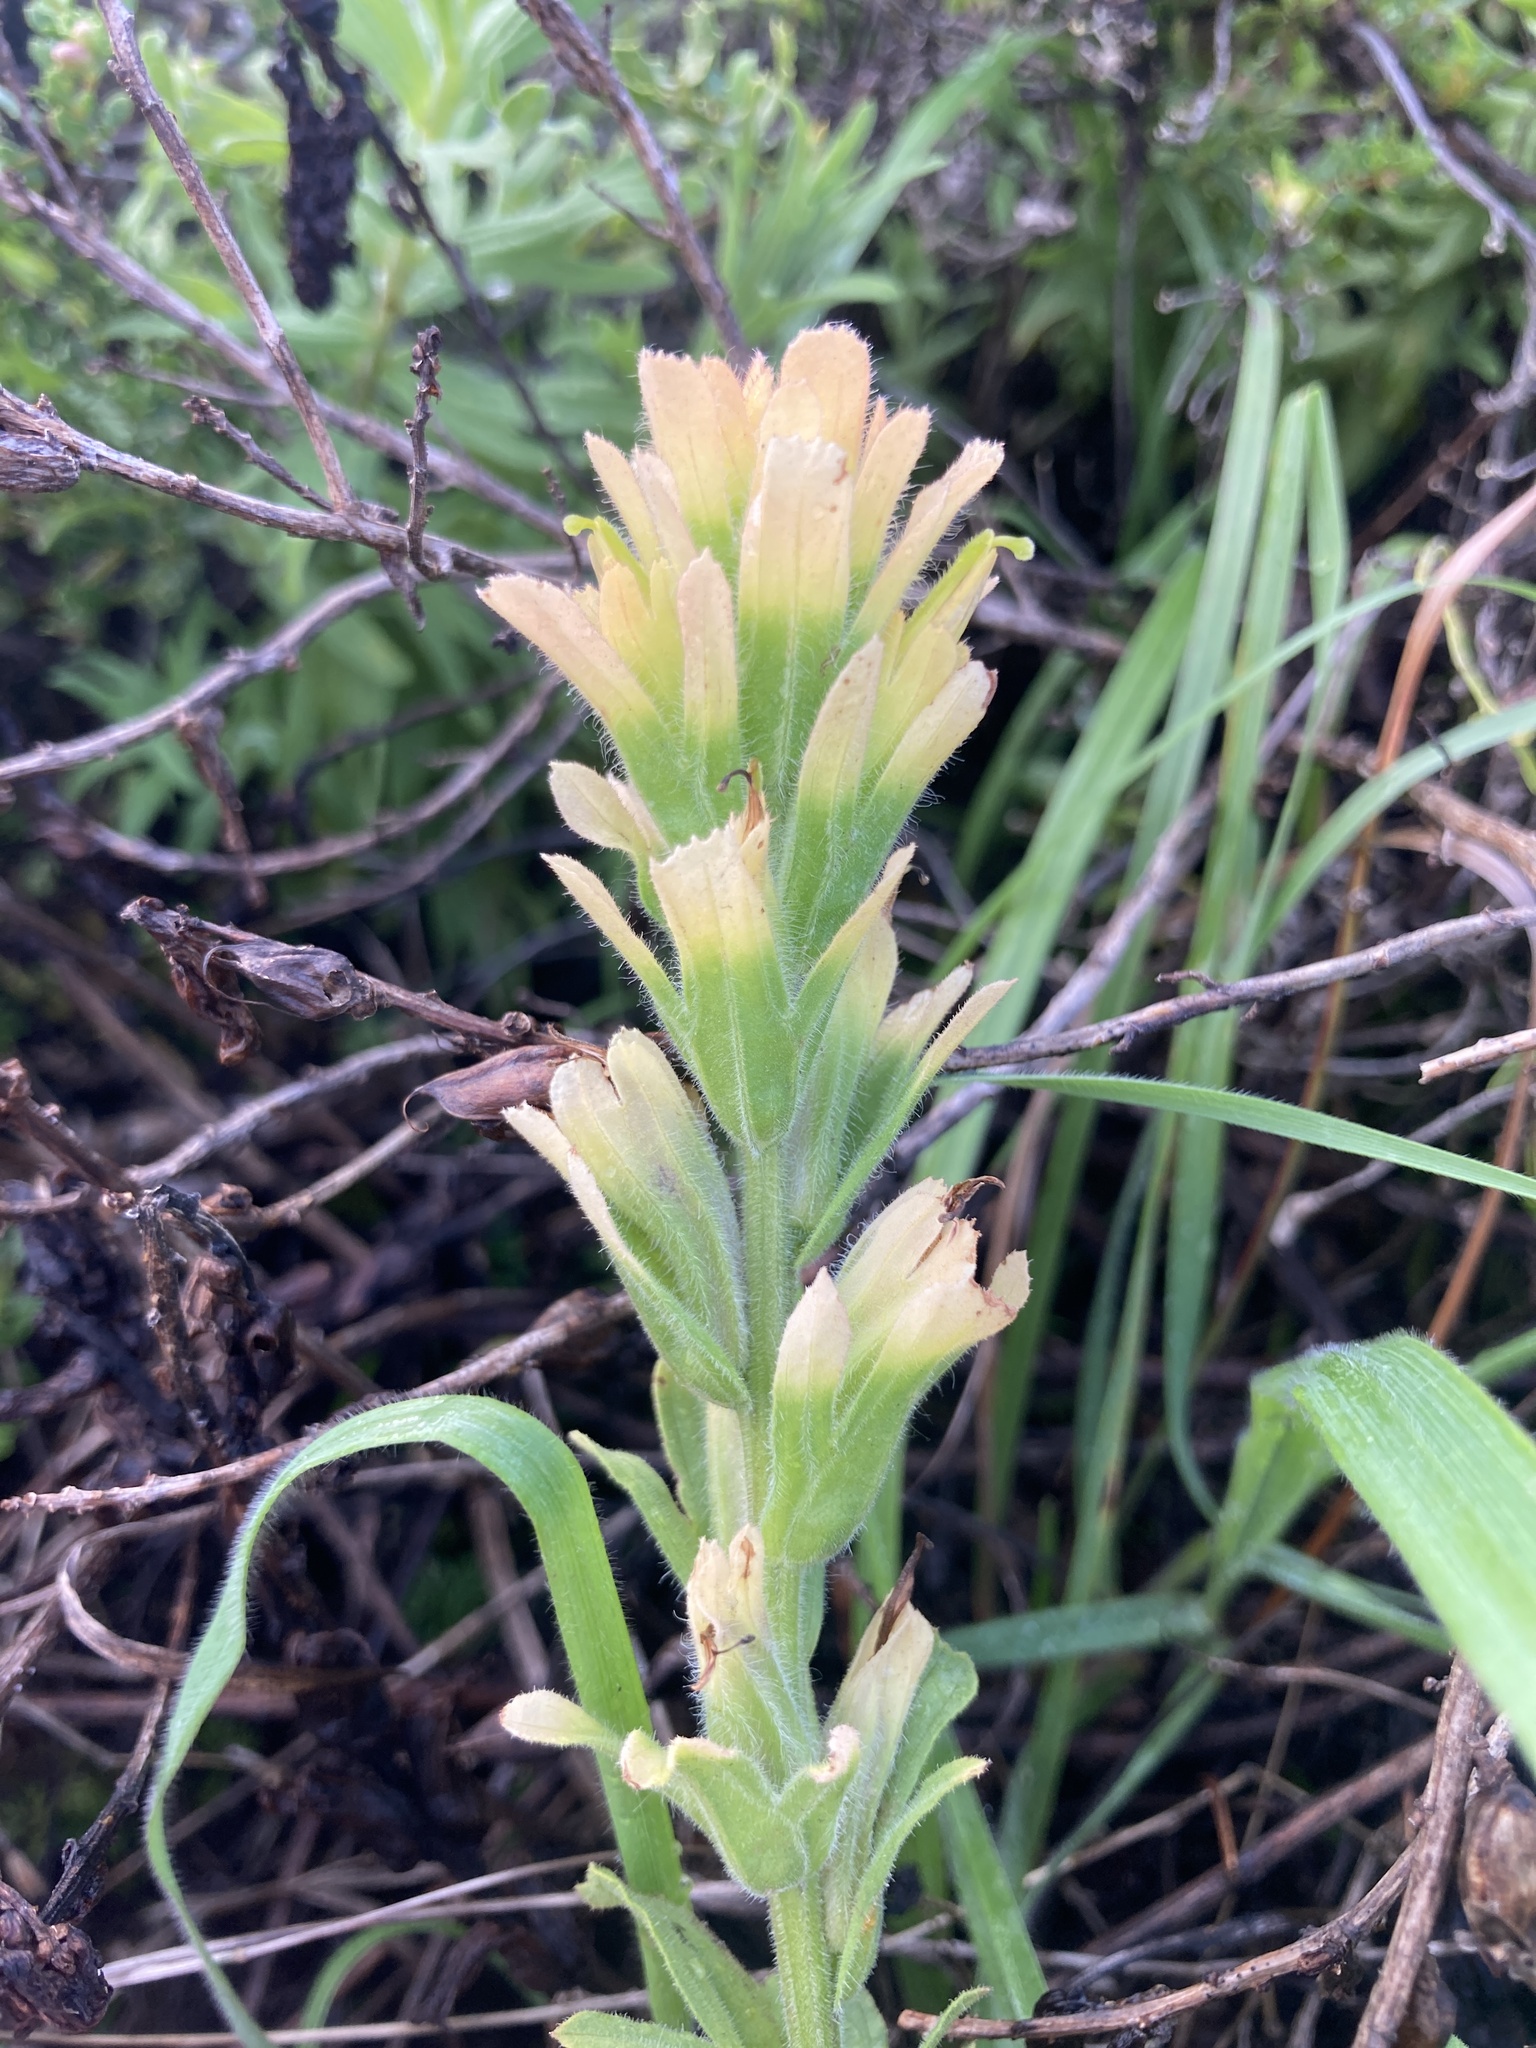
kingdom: Plantae
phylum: Tracheophyta
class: Magnoliopsida
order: Lamiales
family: Orobanchaceae
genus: Castilleja
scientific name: Castilleja wightii
